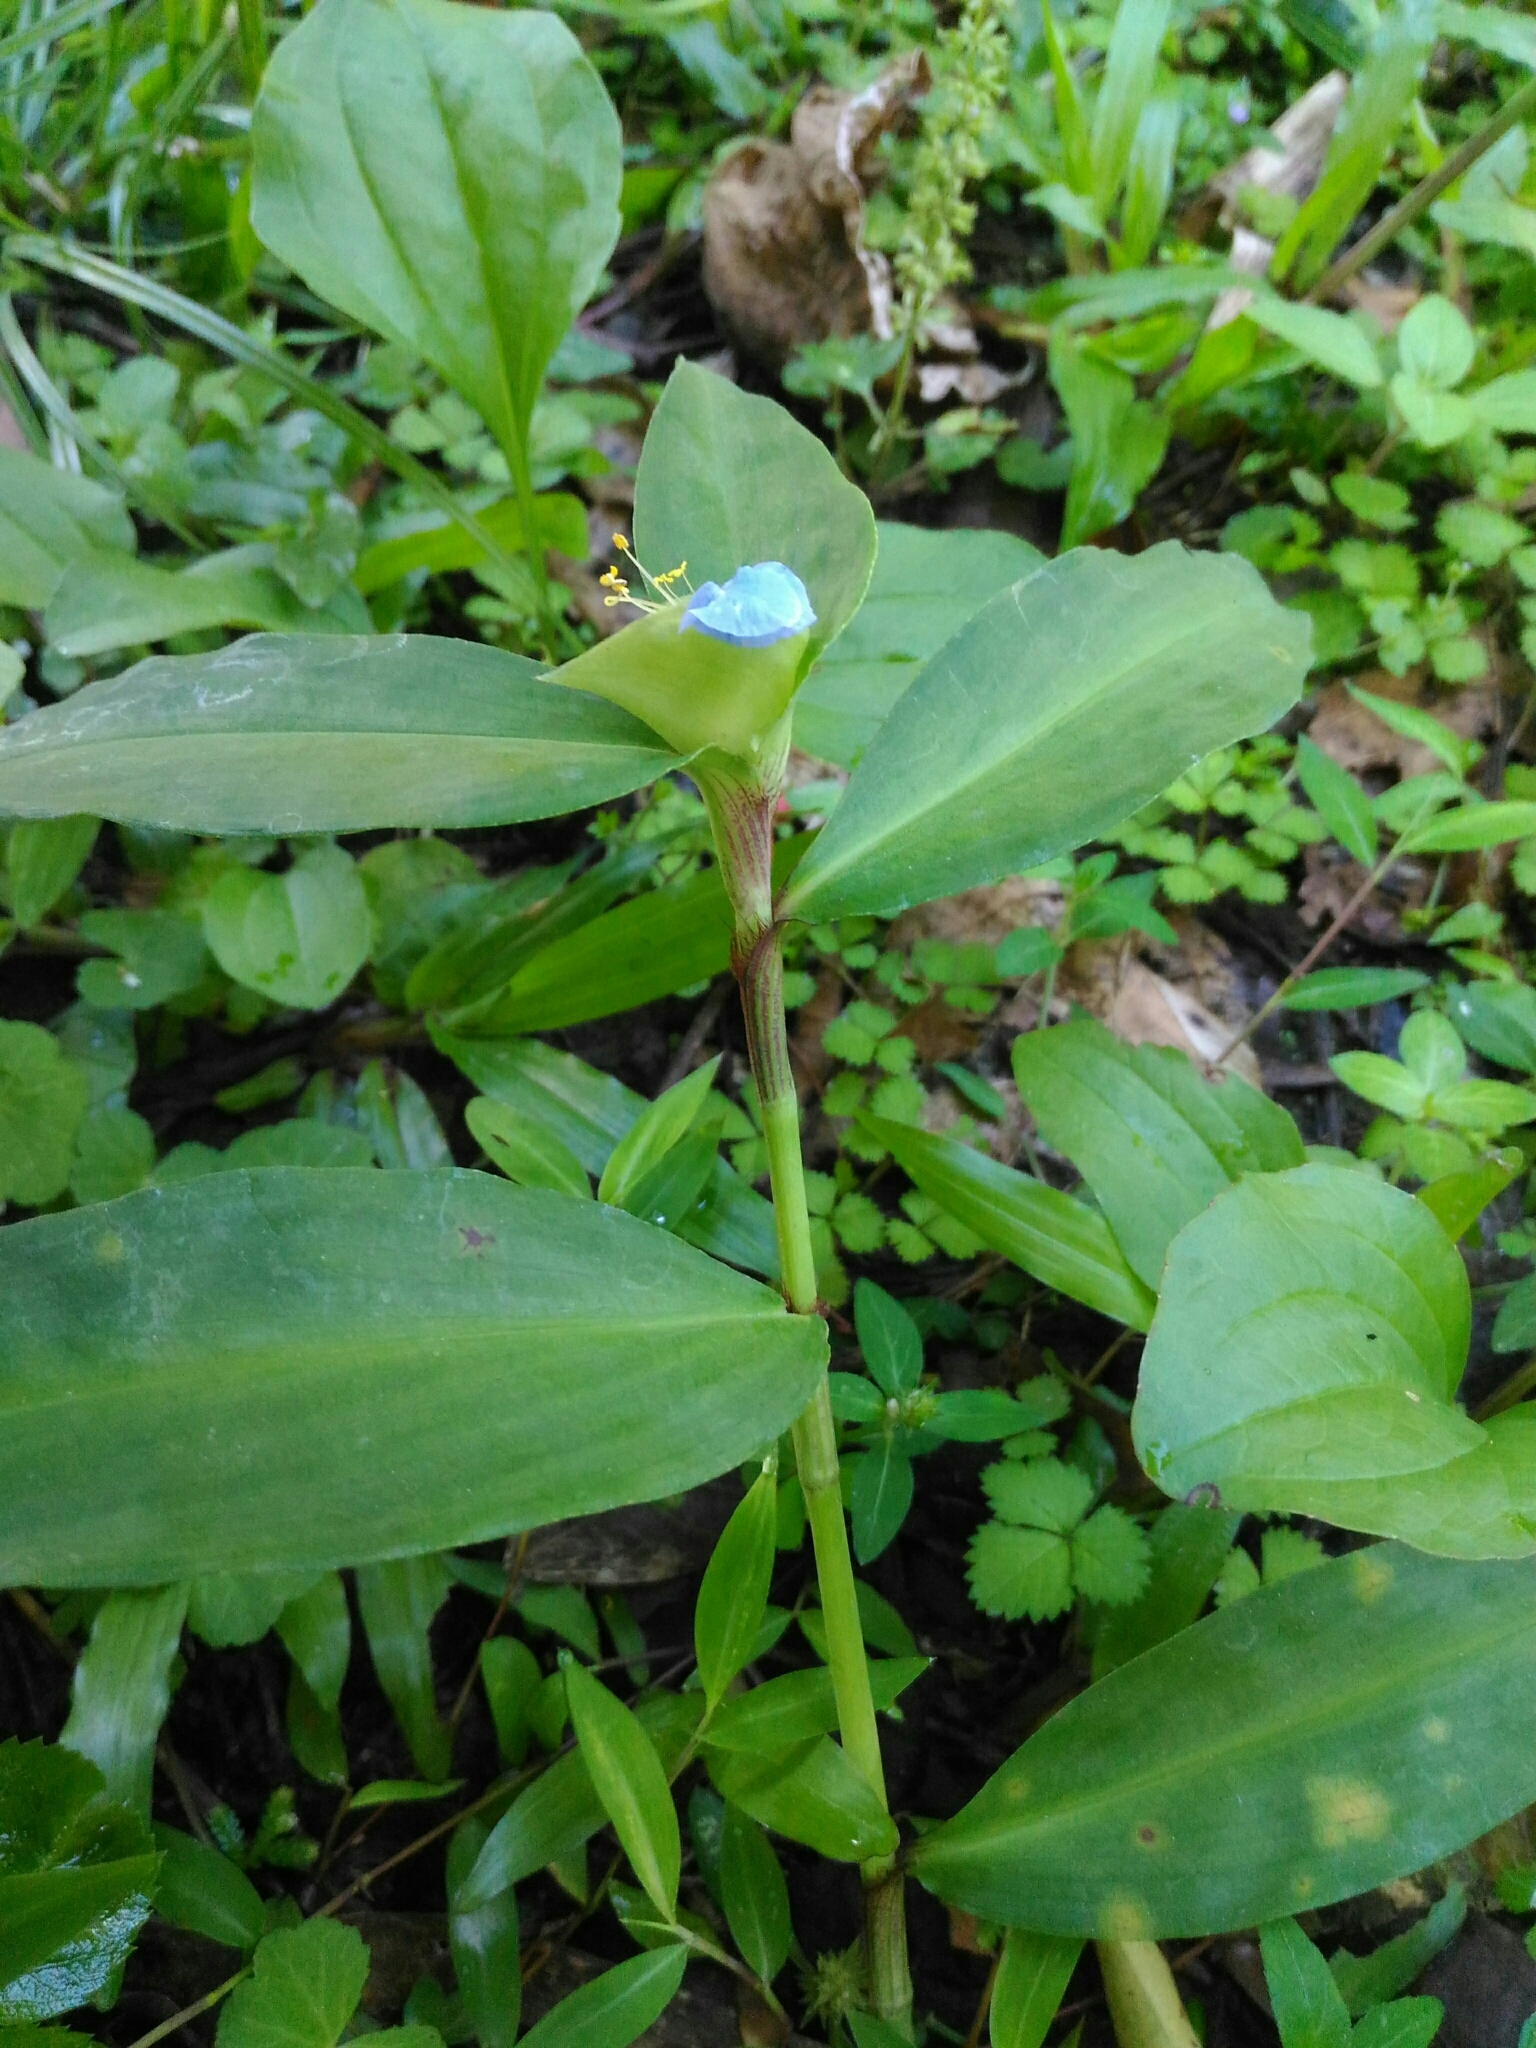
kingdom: Plantae
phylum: Tracheophyta
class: Liliopsida
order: Commelinales
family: Commelinaceae
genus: Commelina
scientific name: Commelina paludosa
